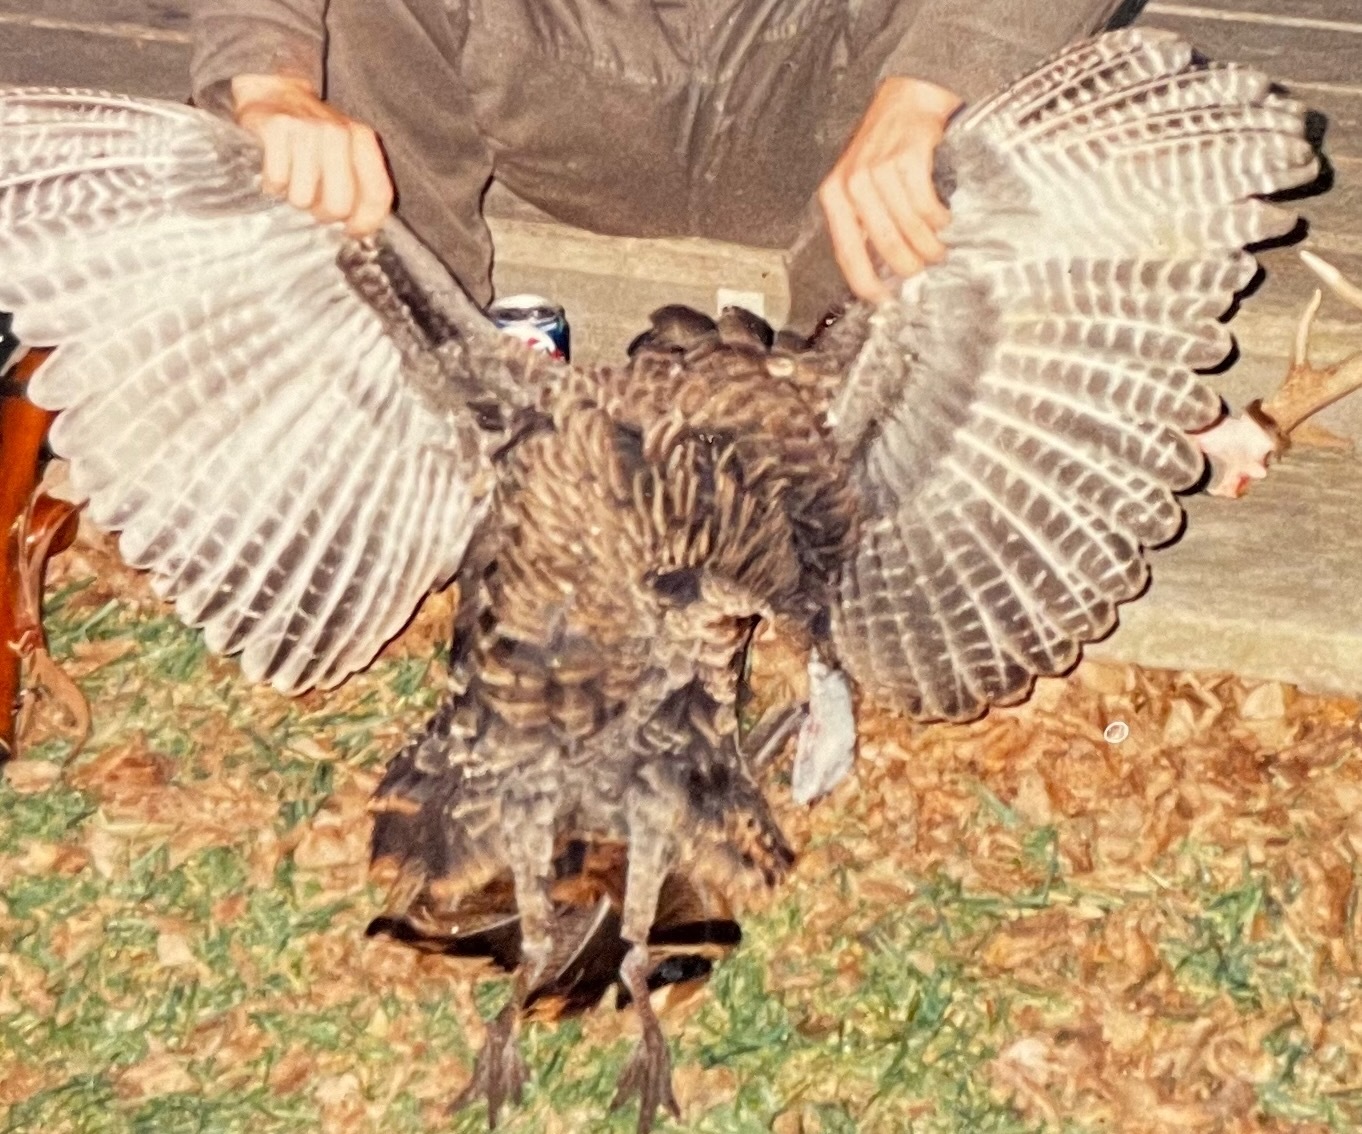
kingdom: Animalia
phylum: Chordata
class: Aves
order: Galliformes
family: Phasianidae
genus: Meleagris
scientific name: Meleagris gallopavo
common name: Wild turkey
